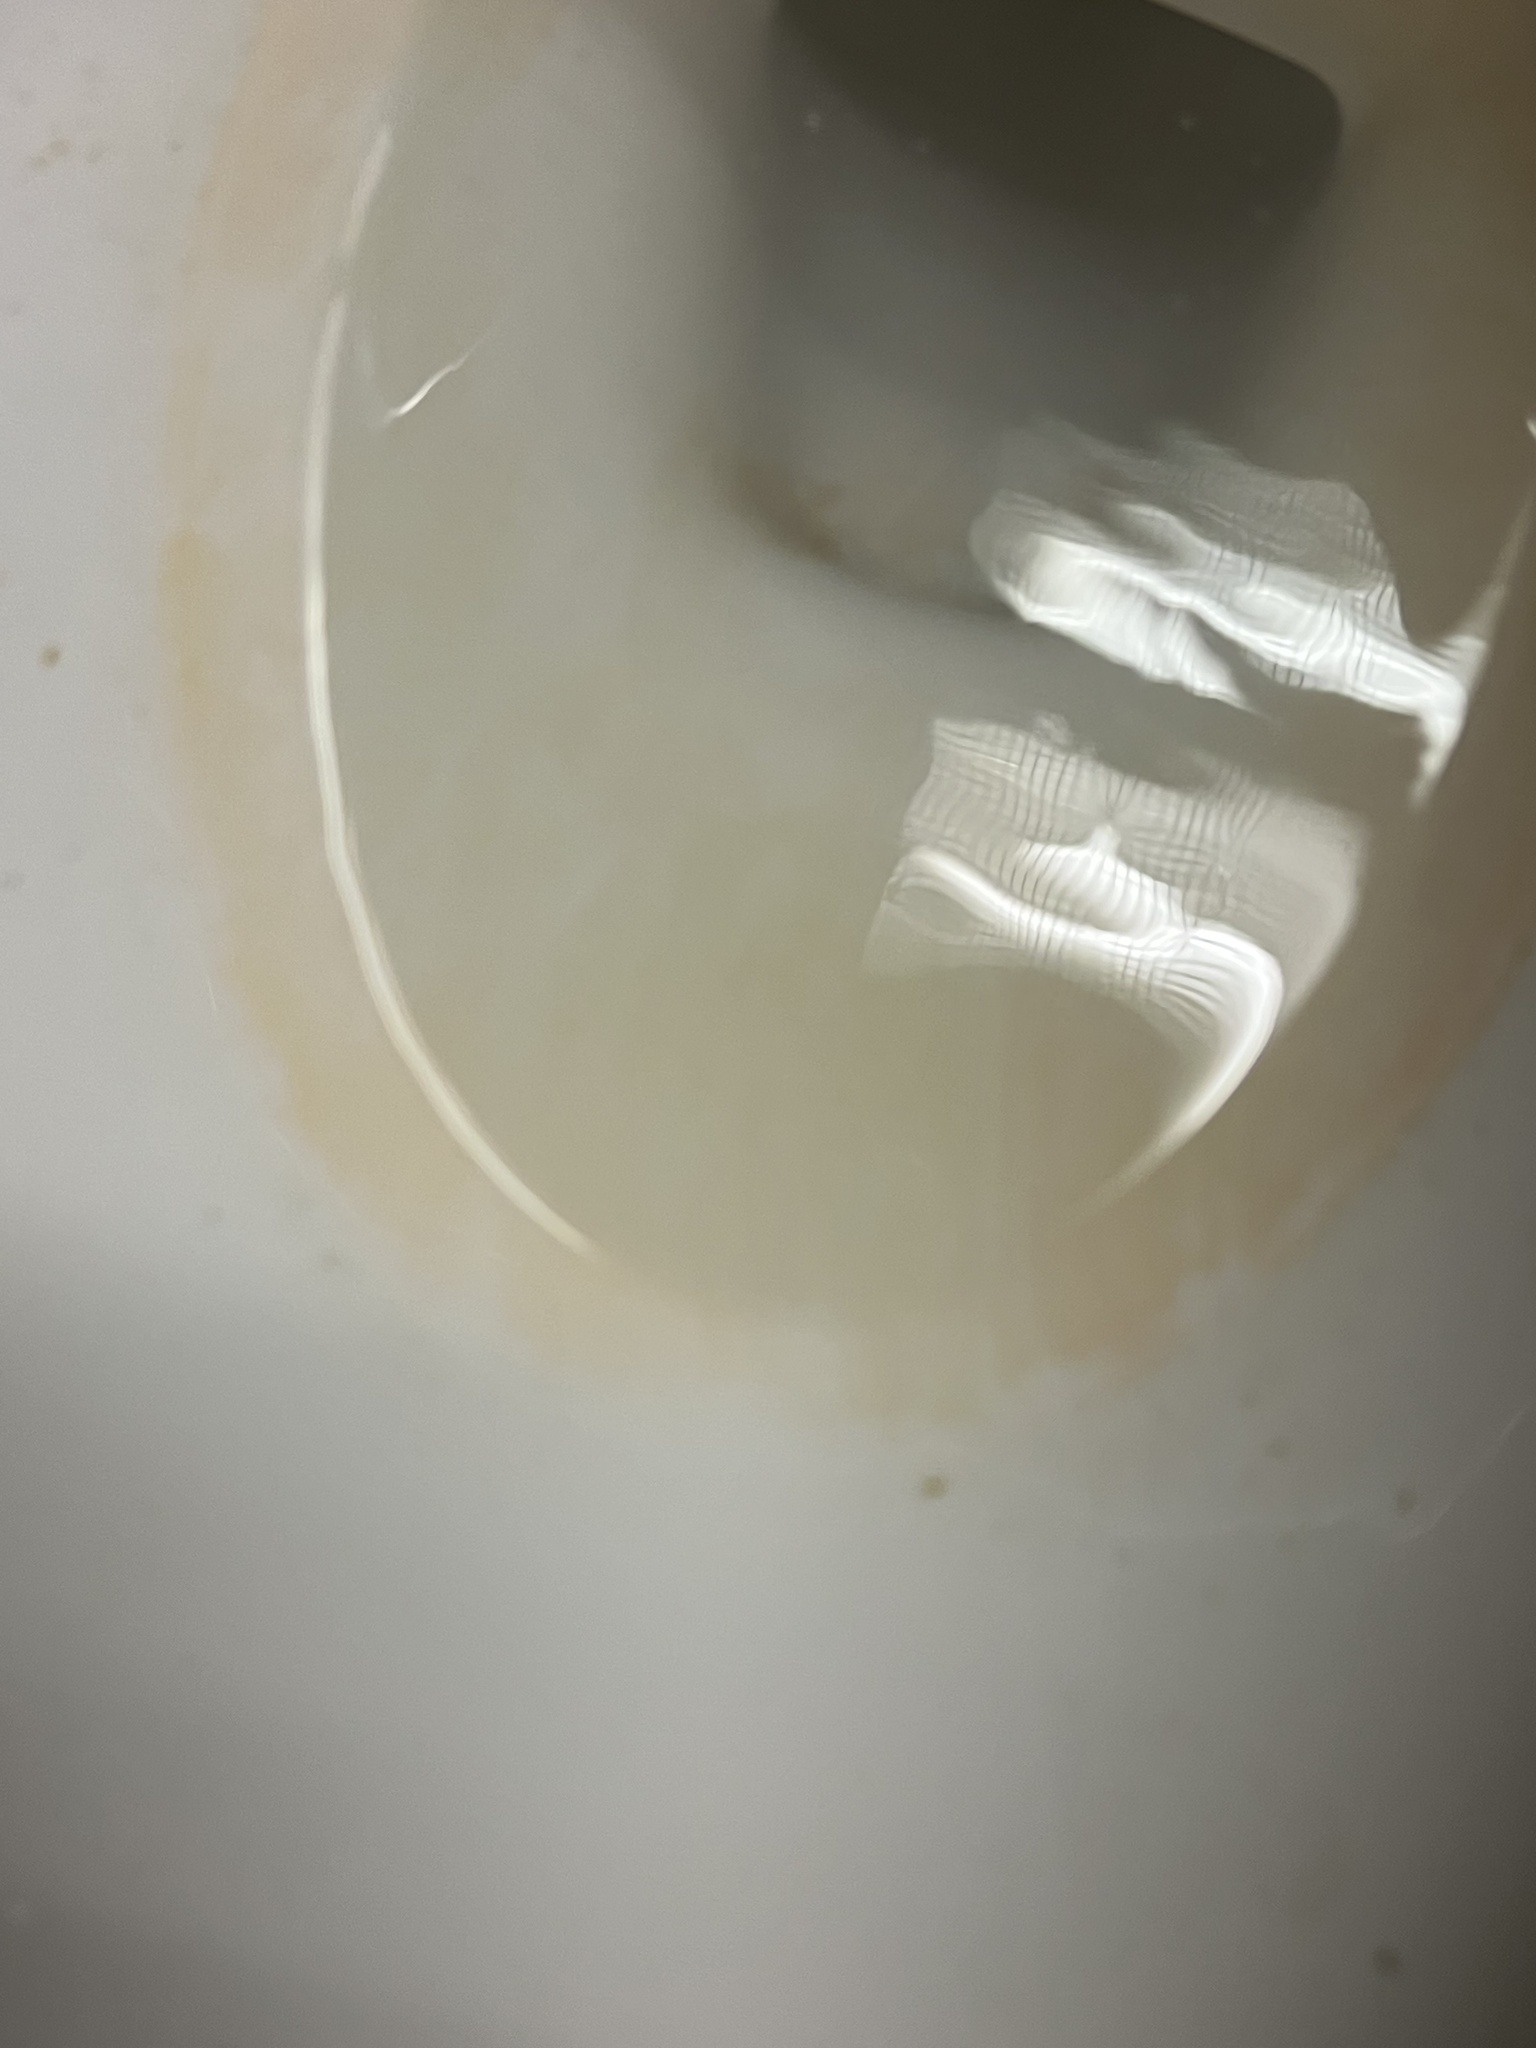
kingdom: Bacteria
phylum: Proteobacteria
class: Gammaproteobacteria
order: Enterobacterales
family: Enterobacteriaceae
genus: Serratia
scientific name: Serratia marcescens
